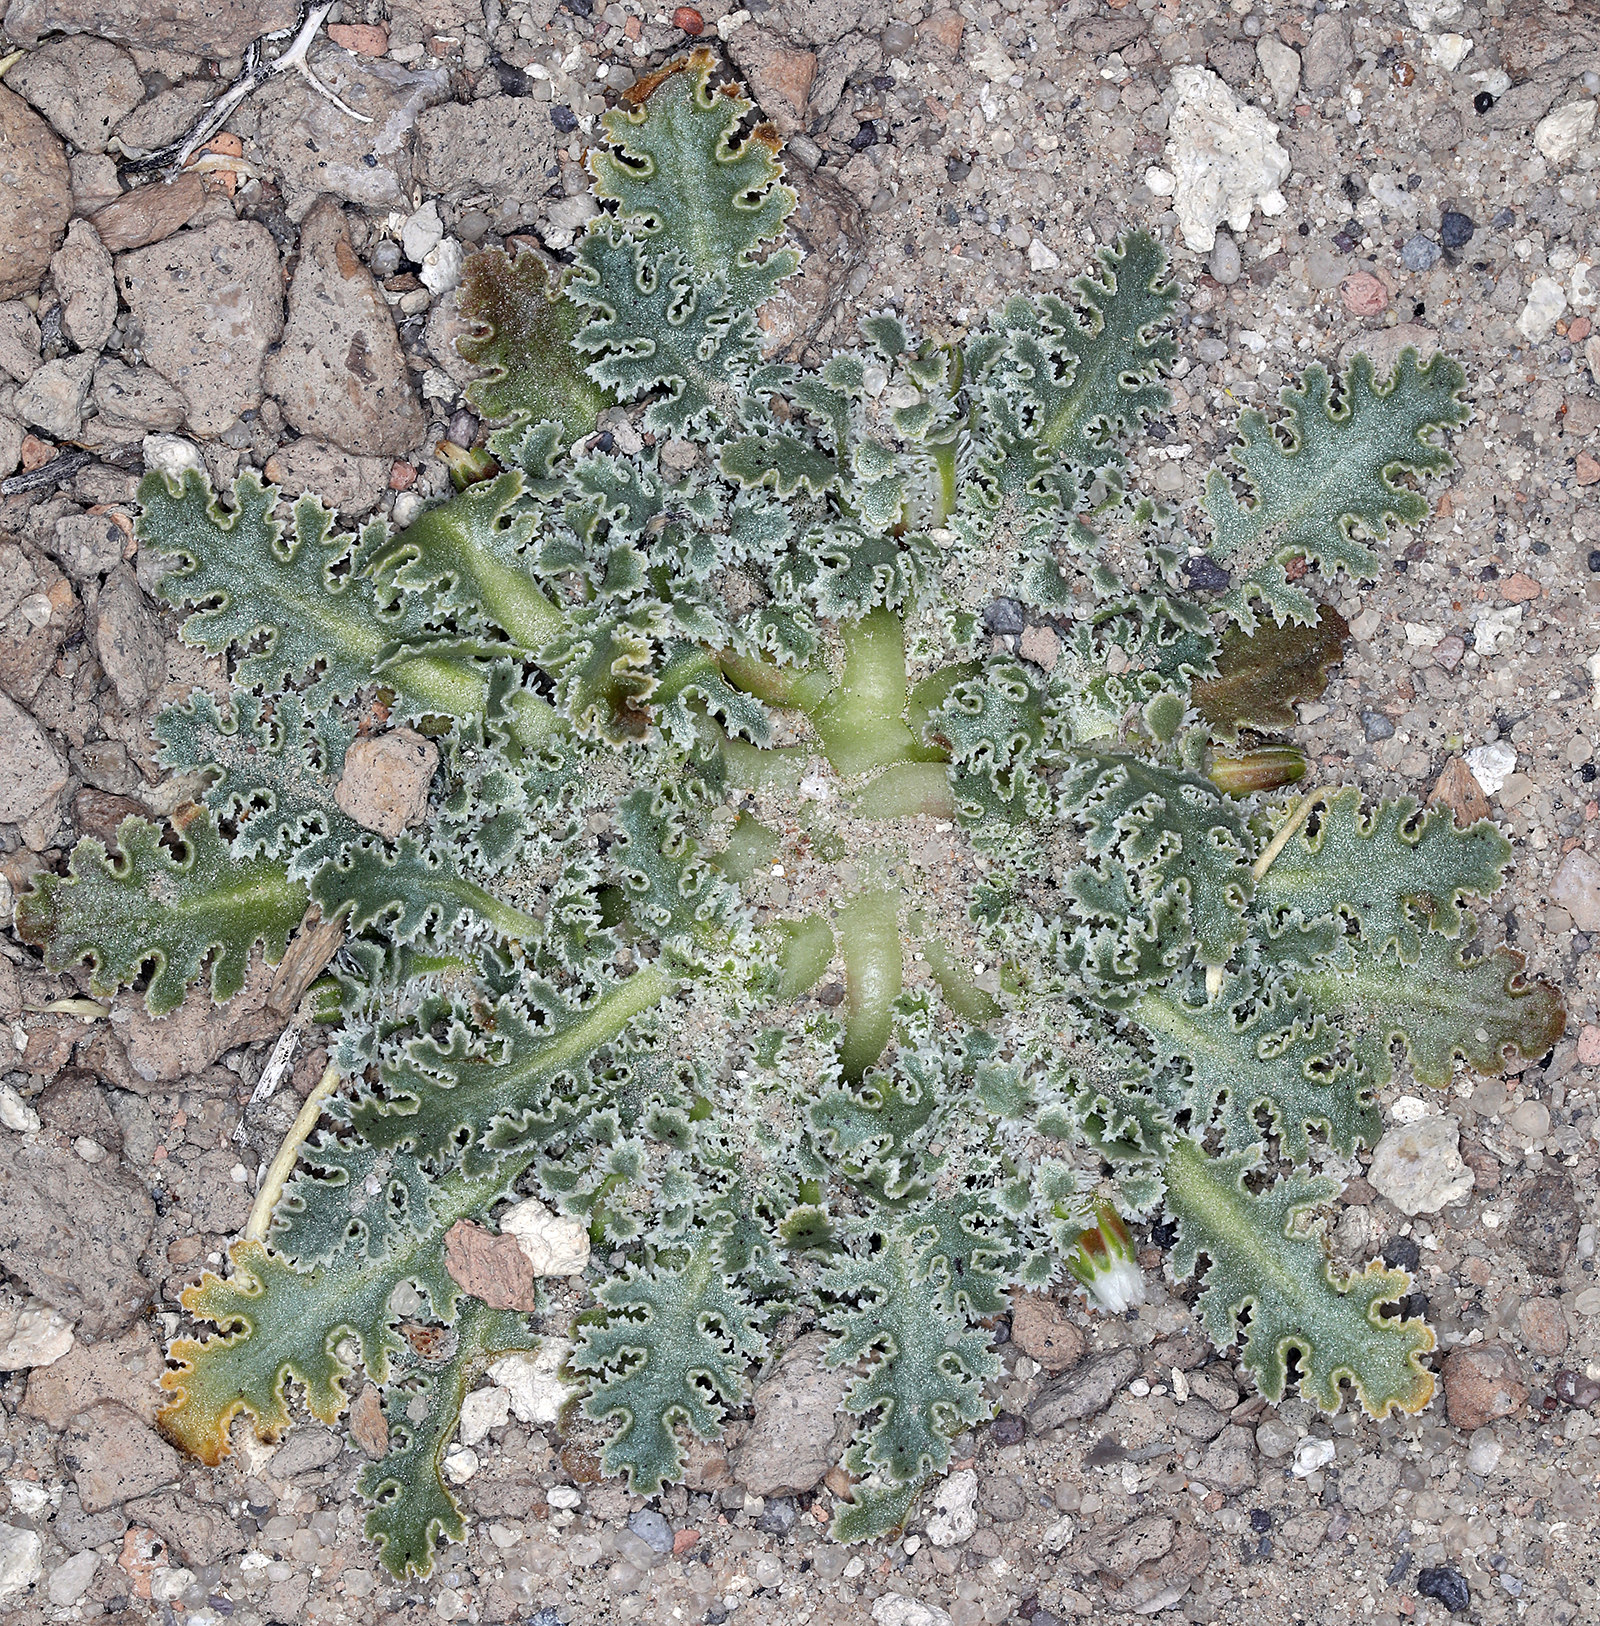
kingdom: Plantae
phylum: Tracheophyta
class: Magnoliopsida
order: Asterales
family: Asteraceae
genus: Glyptopleura
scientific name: Glyptopleura marginata
